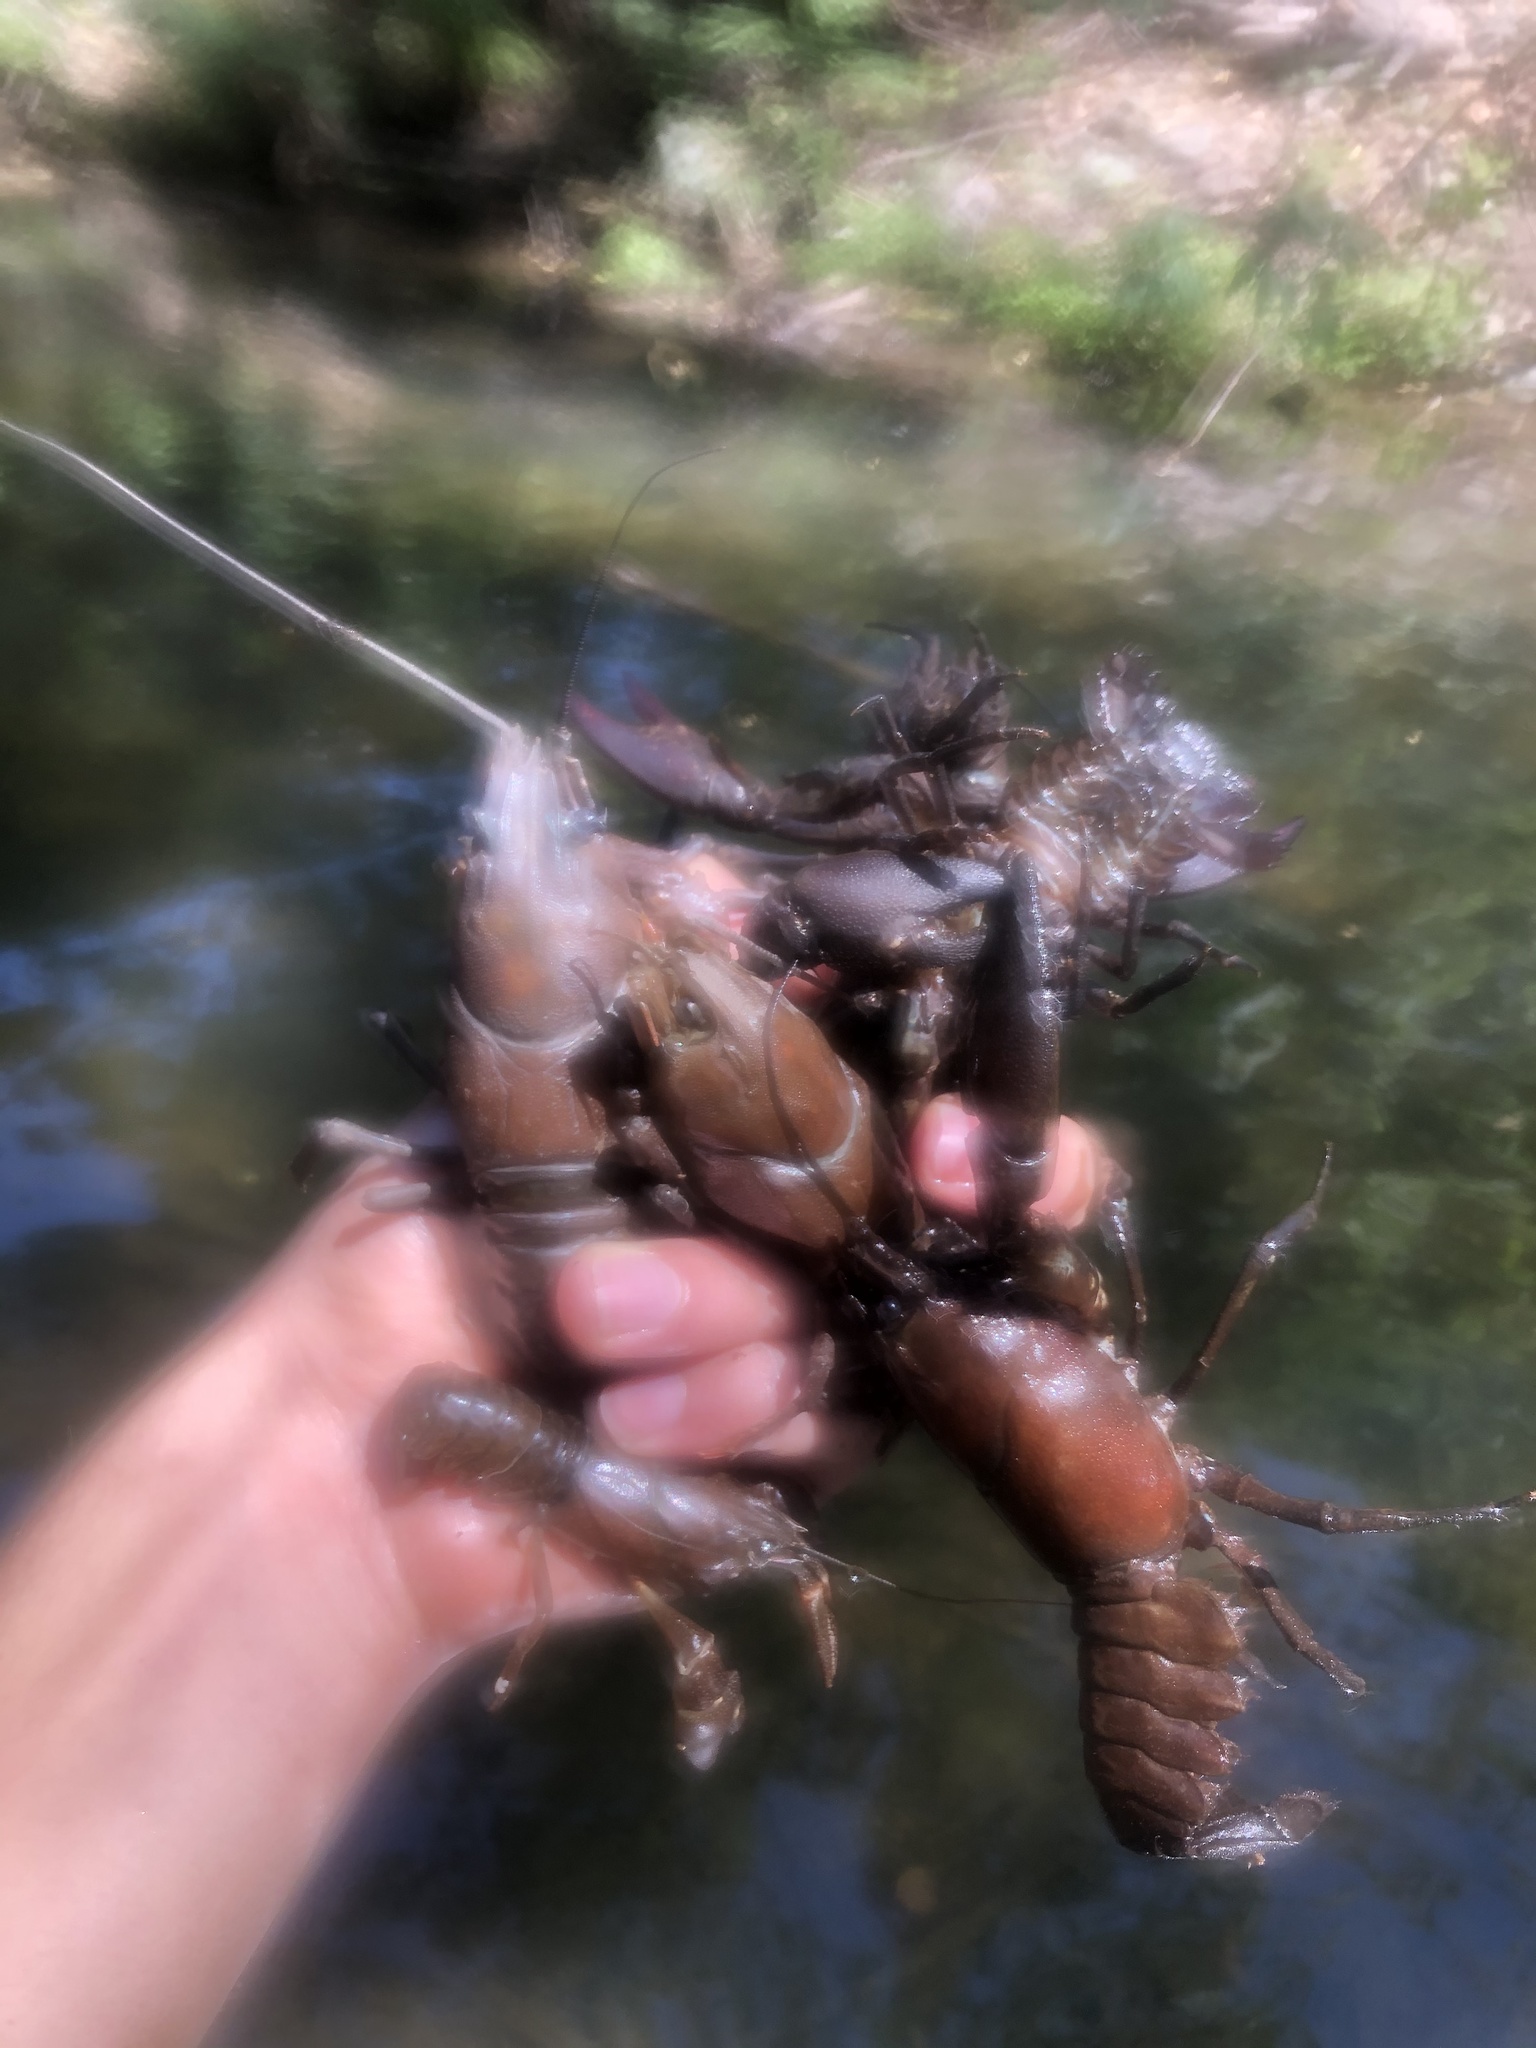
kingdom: Animalia
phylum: Arthropoda
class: Malacostraca
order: Decapoda
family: Astacidae
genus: Pacifastacus
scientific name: Pacifastacus leniusculus
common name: Signal crayfish
